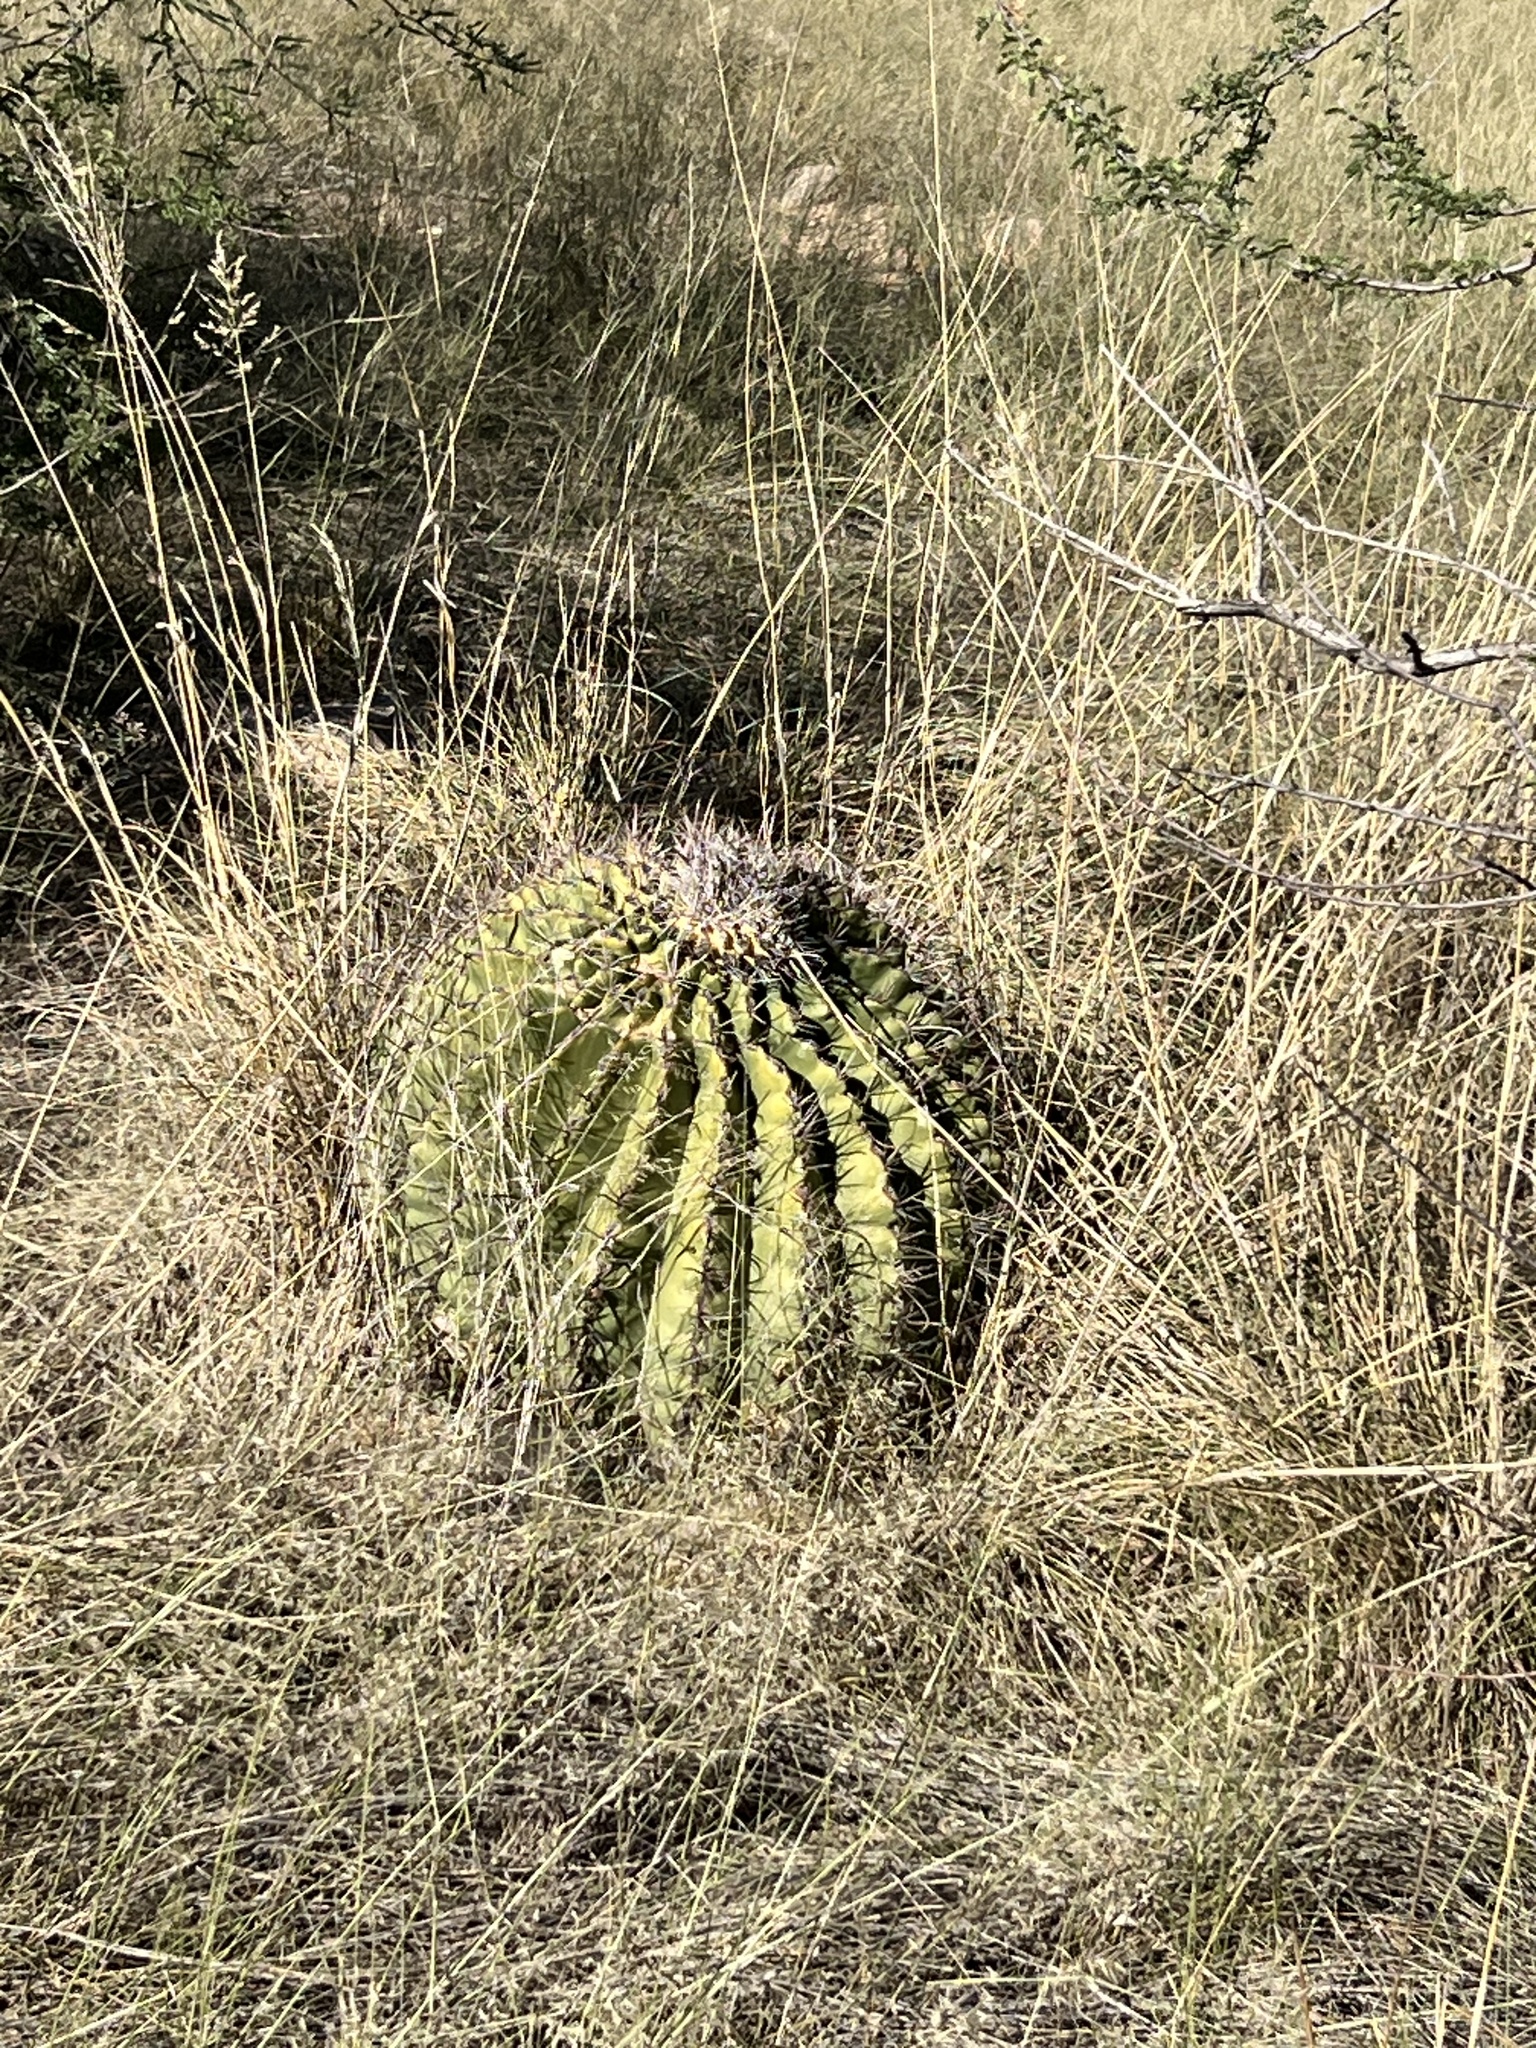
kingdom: Plantae
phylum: Tracheophyta
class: Magnoliopsida
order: Caryophyllales
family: Cactaceae
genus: Ferocactus
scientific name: Ferocactus wislizeni
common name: Candy barrel cactus
